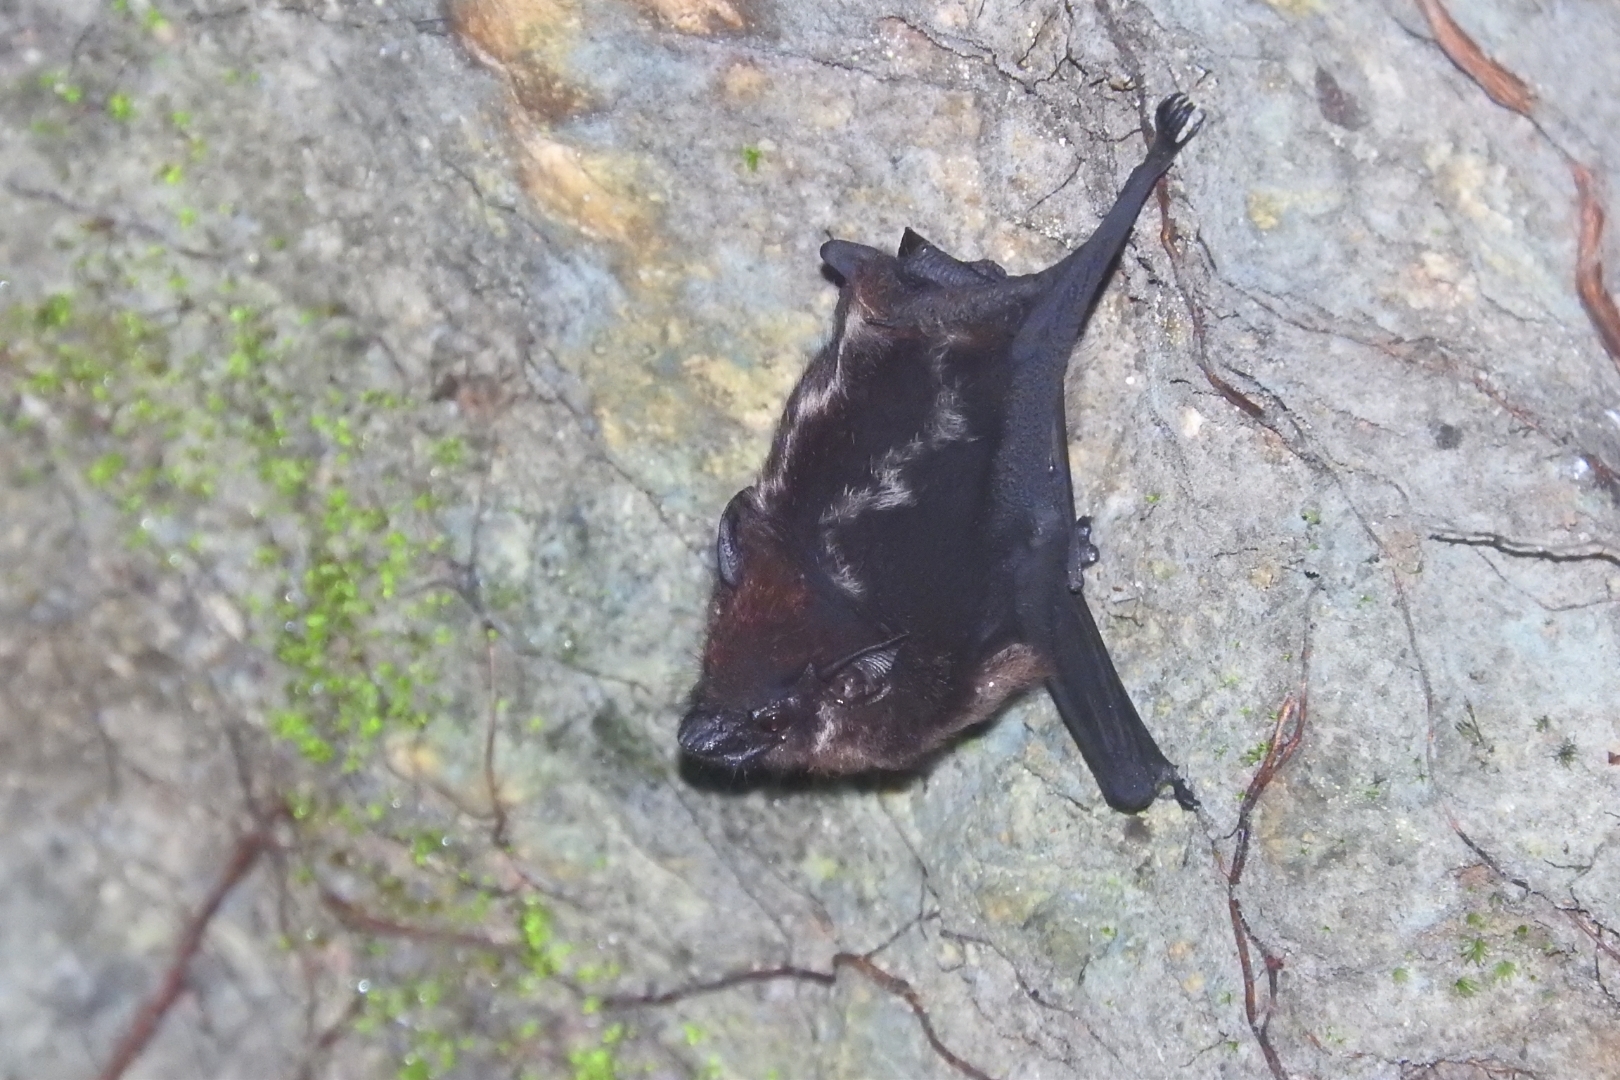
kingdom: Animalia
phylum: Chordata
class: Mammalia
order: Chiroptera
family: Emballonuridae
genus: Saccopteryx
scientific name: Saccopteryx bilineata
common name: Greater sac-winged bat
